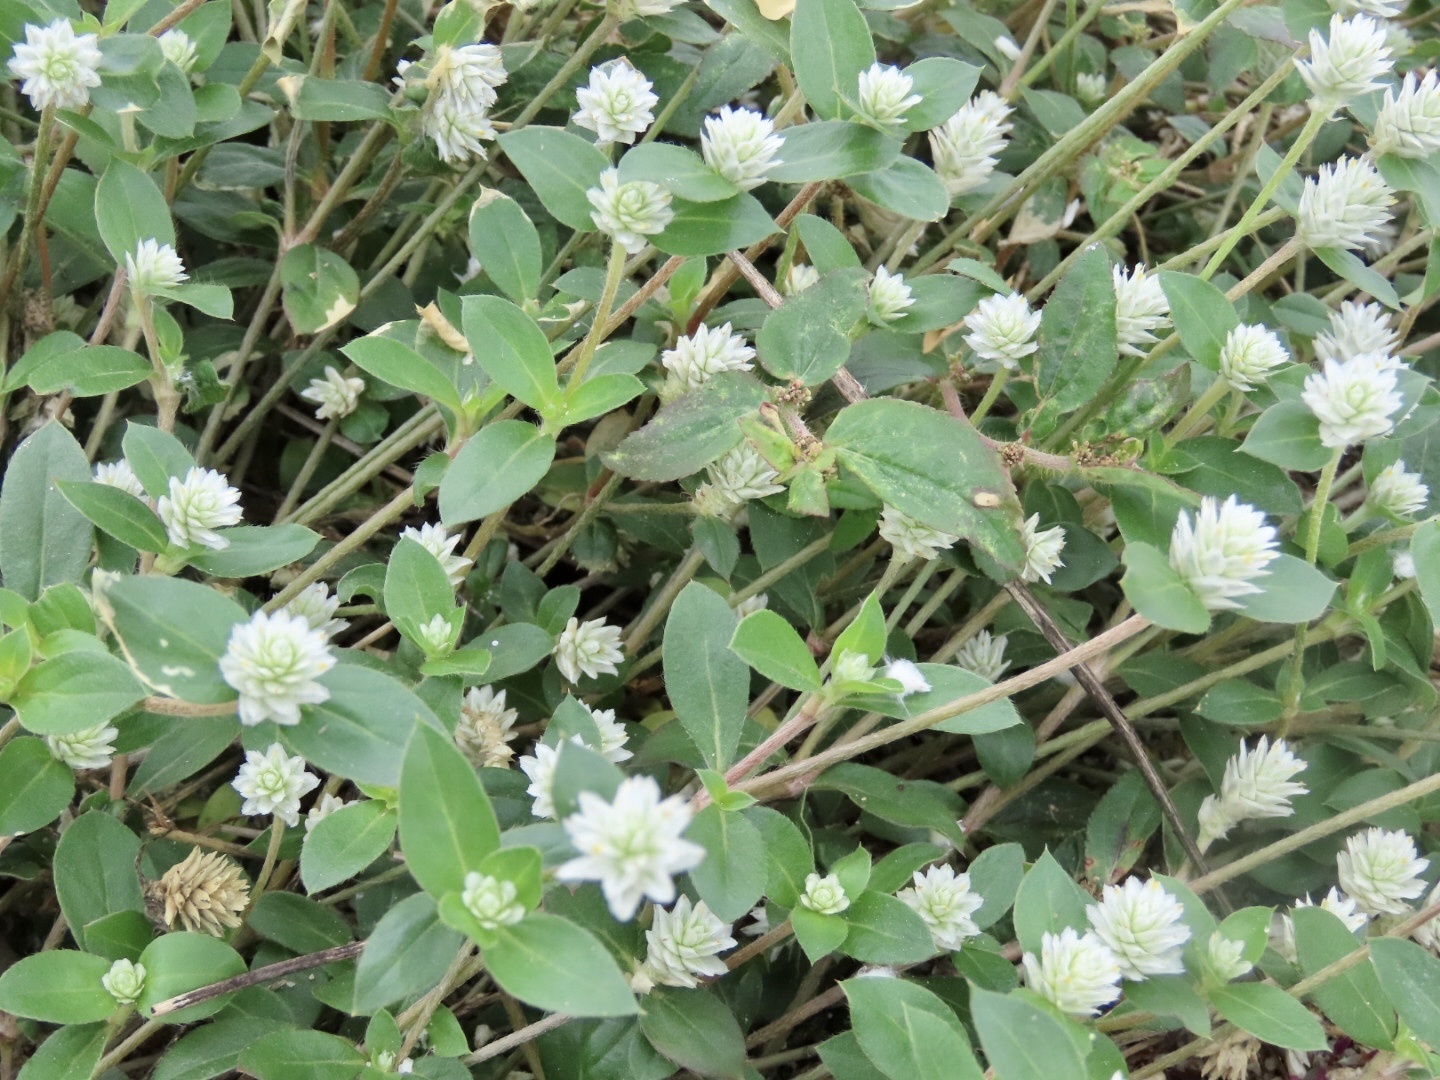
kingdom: Plantae
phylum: Tracheophyta
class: Magnoliopsida
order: Caryophyllales
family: Amaranthaceae
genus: Gomphrena
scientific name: Gomphrena serrata
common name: Arrasa con todo
